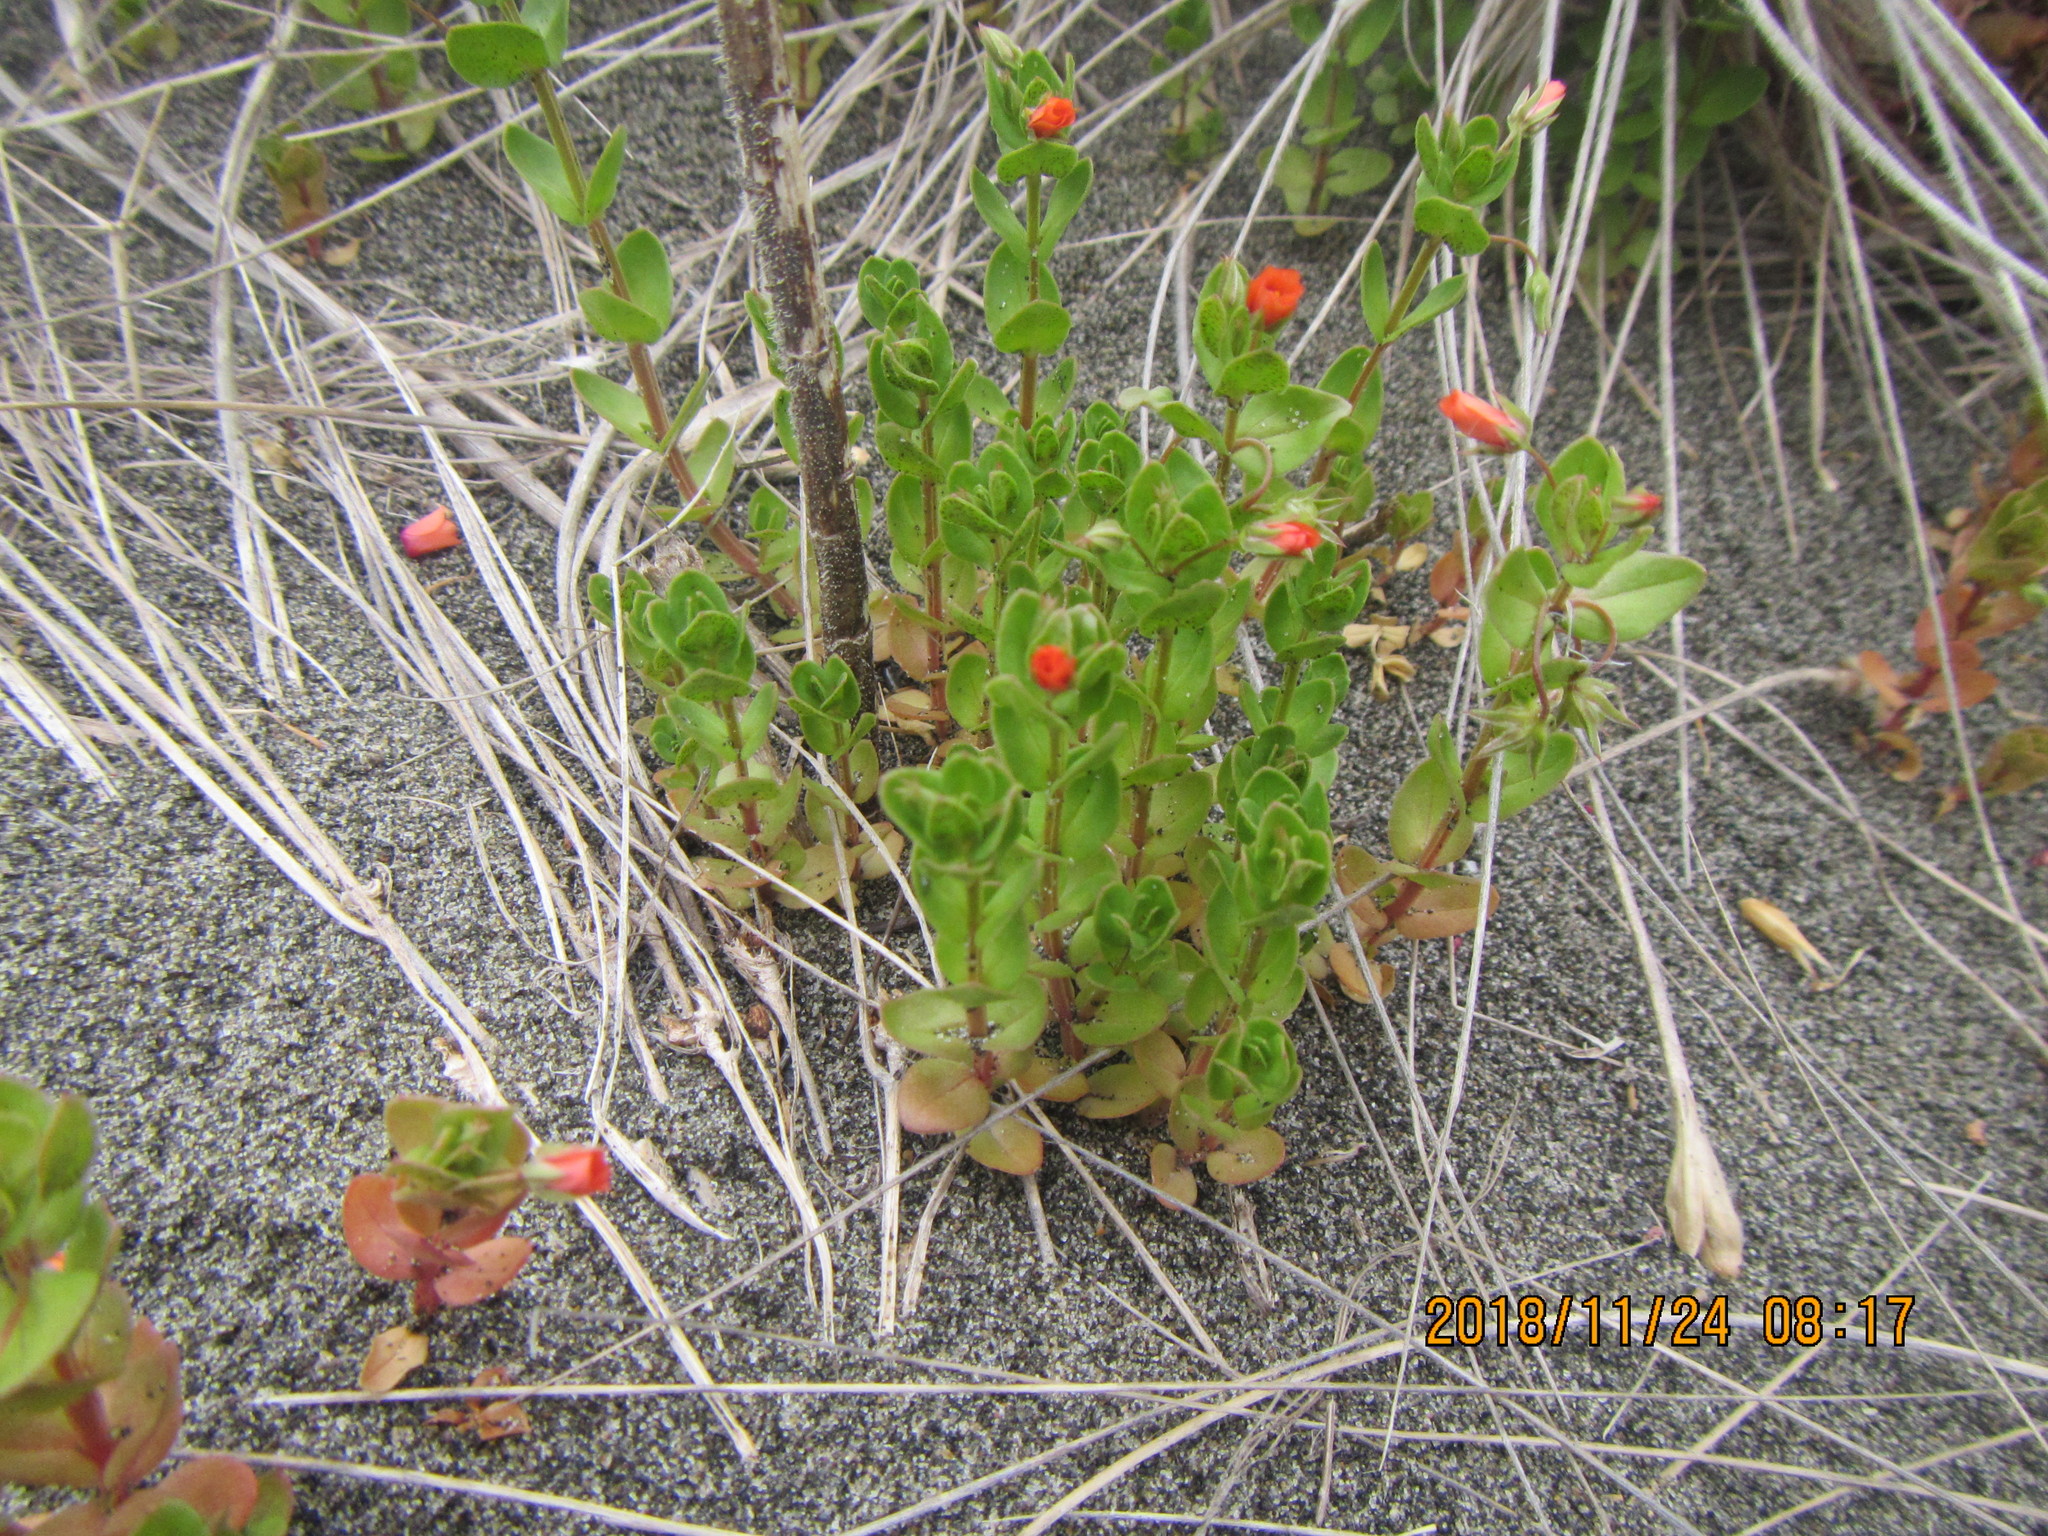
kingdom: Plantae
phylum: Tracheophyta
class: Magnoliopsida
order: Ericales
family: Primulaceae
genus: Lysimachia
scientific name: Lysimachia arvensis
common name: Scarlet pimpernel
